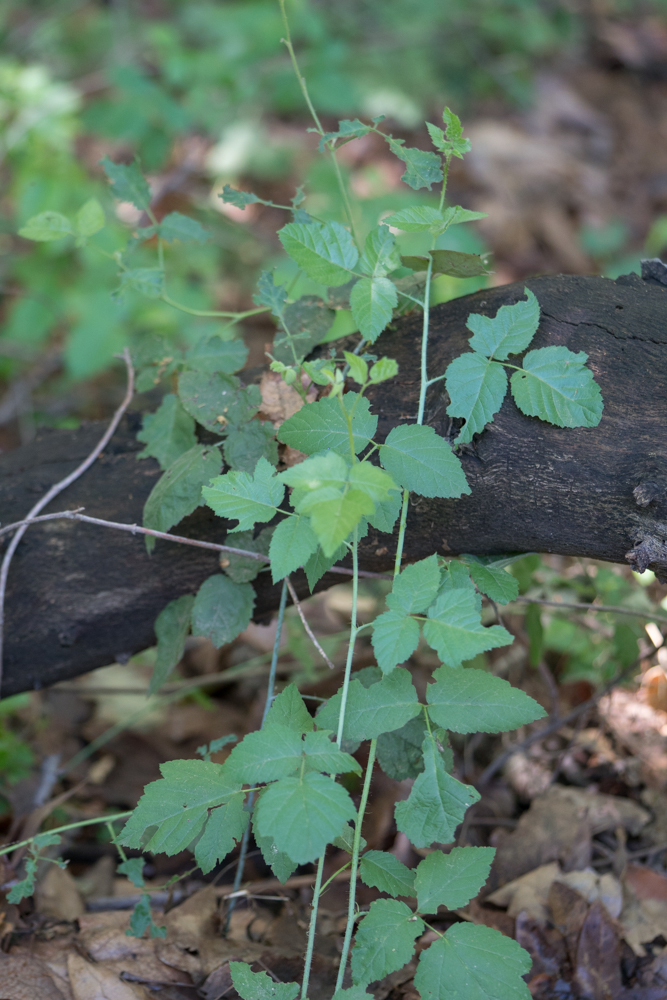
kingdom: Plantae
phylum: Tracheophyta
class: Magnoliopsida
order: Rosales
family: Rosaceae
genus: Rubus
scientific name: Rubus ursinus
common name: Pacific blackberry
